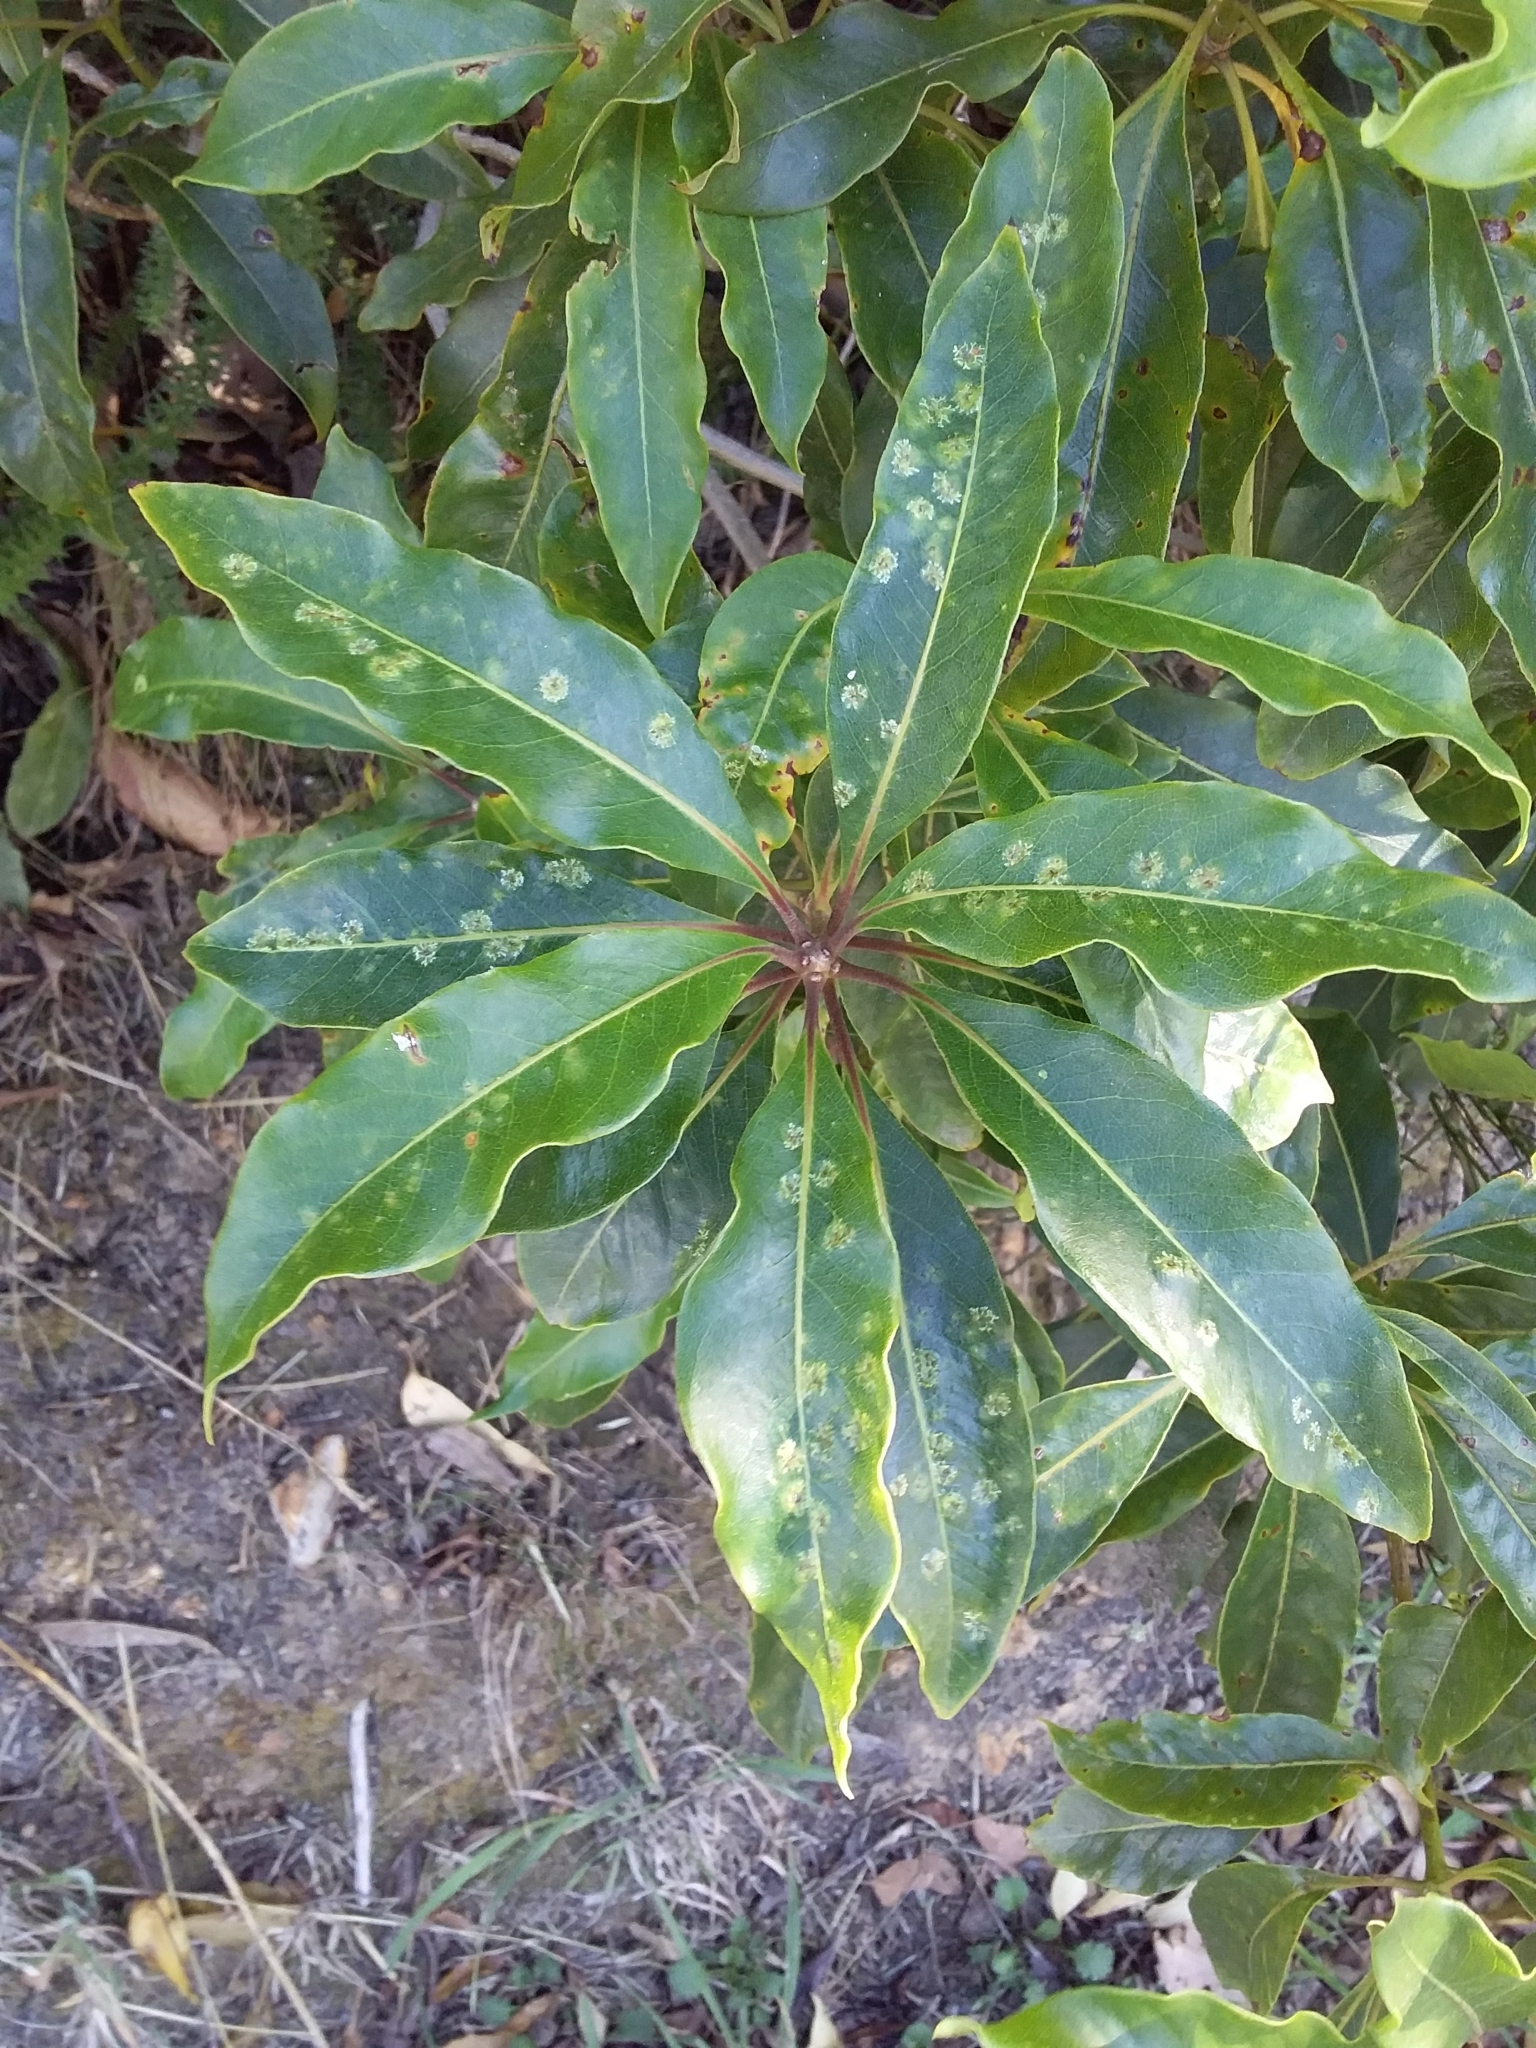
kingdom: Plantae
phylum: Tracheophyta
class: Magnoliopsida
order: Apiales
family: Pittosporaceae
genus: Pittosporum
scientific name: Pittosporum undulatum
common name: Australian cheesewood
